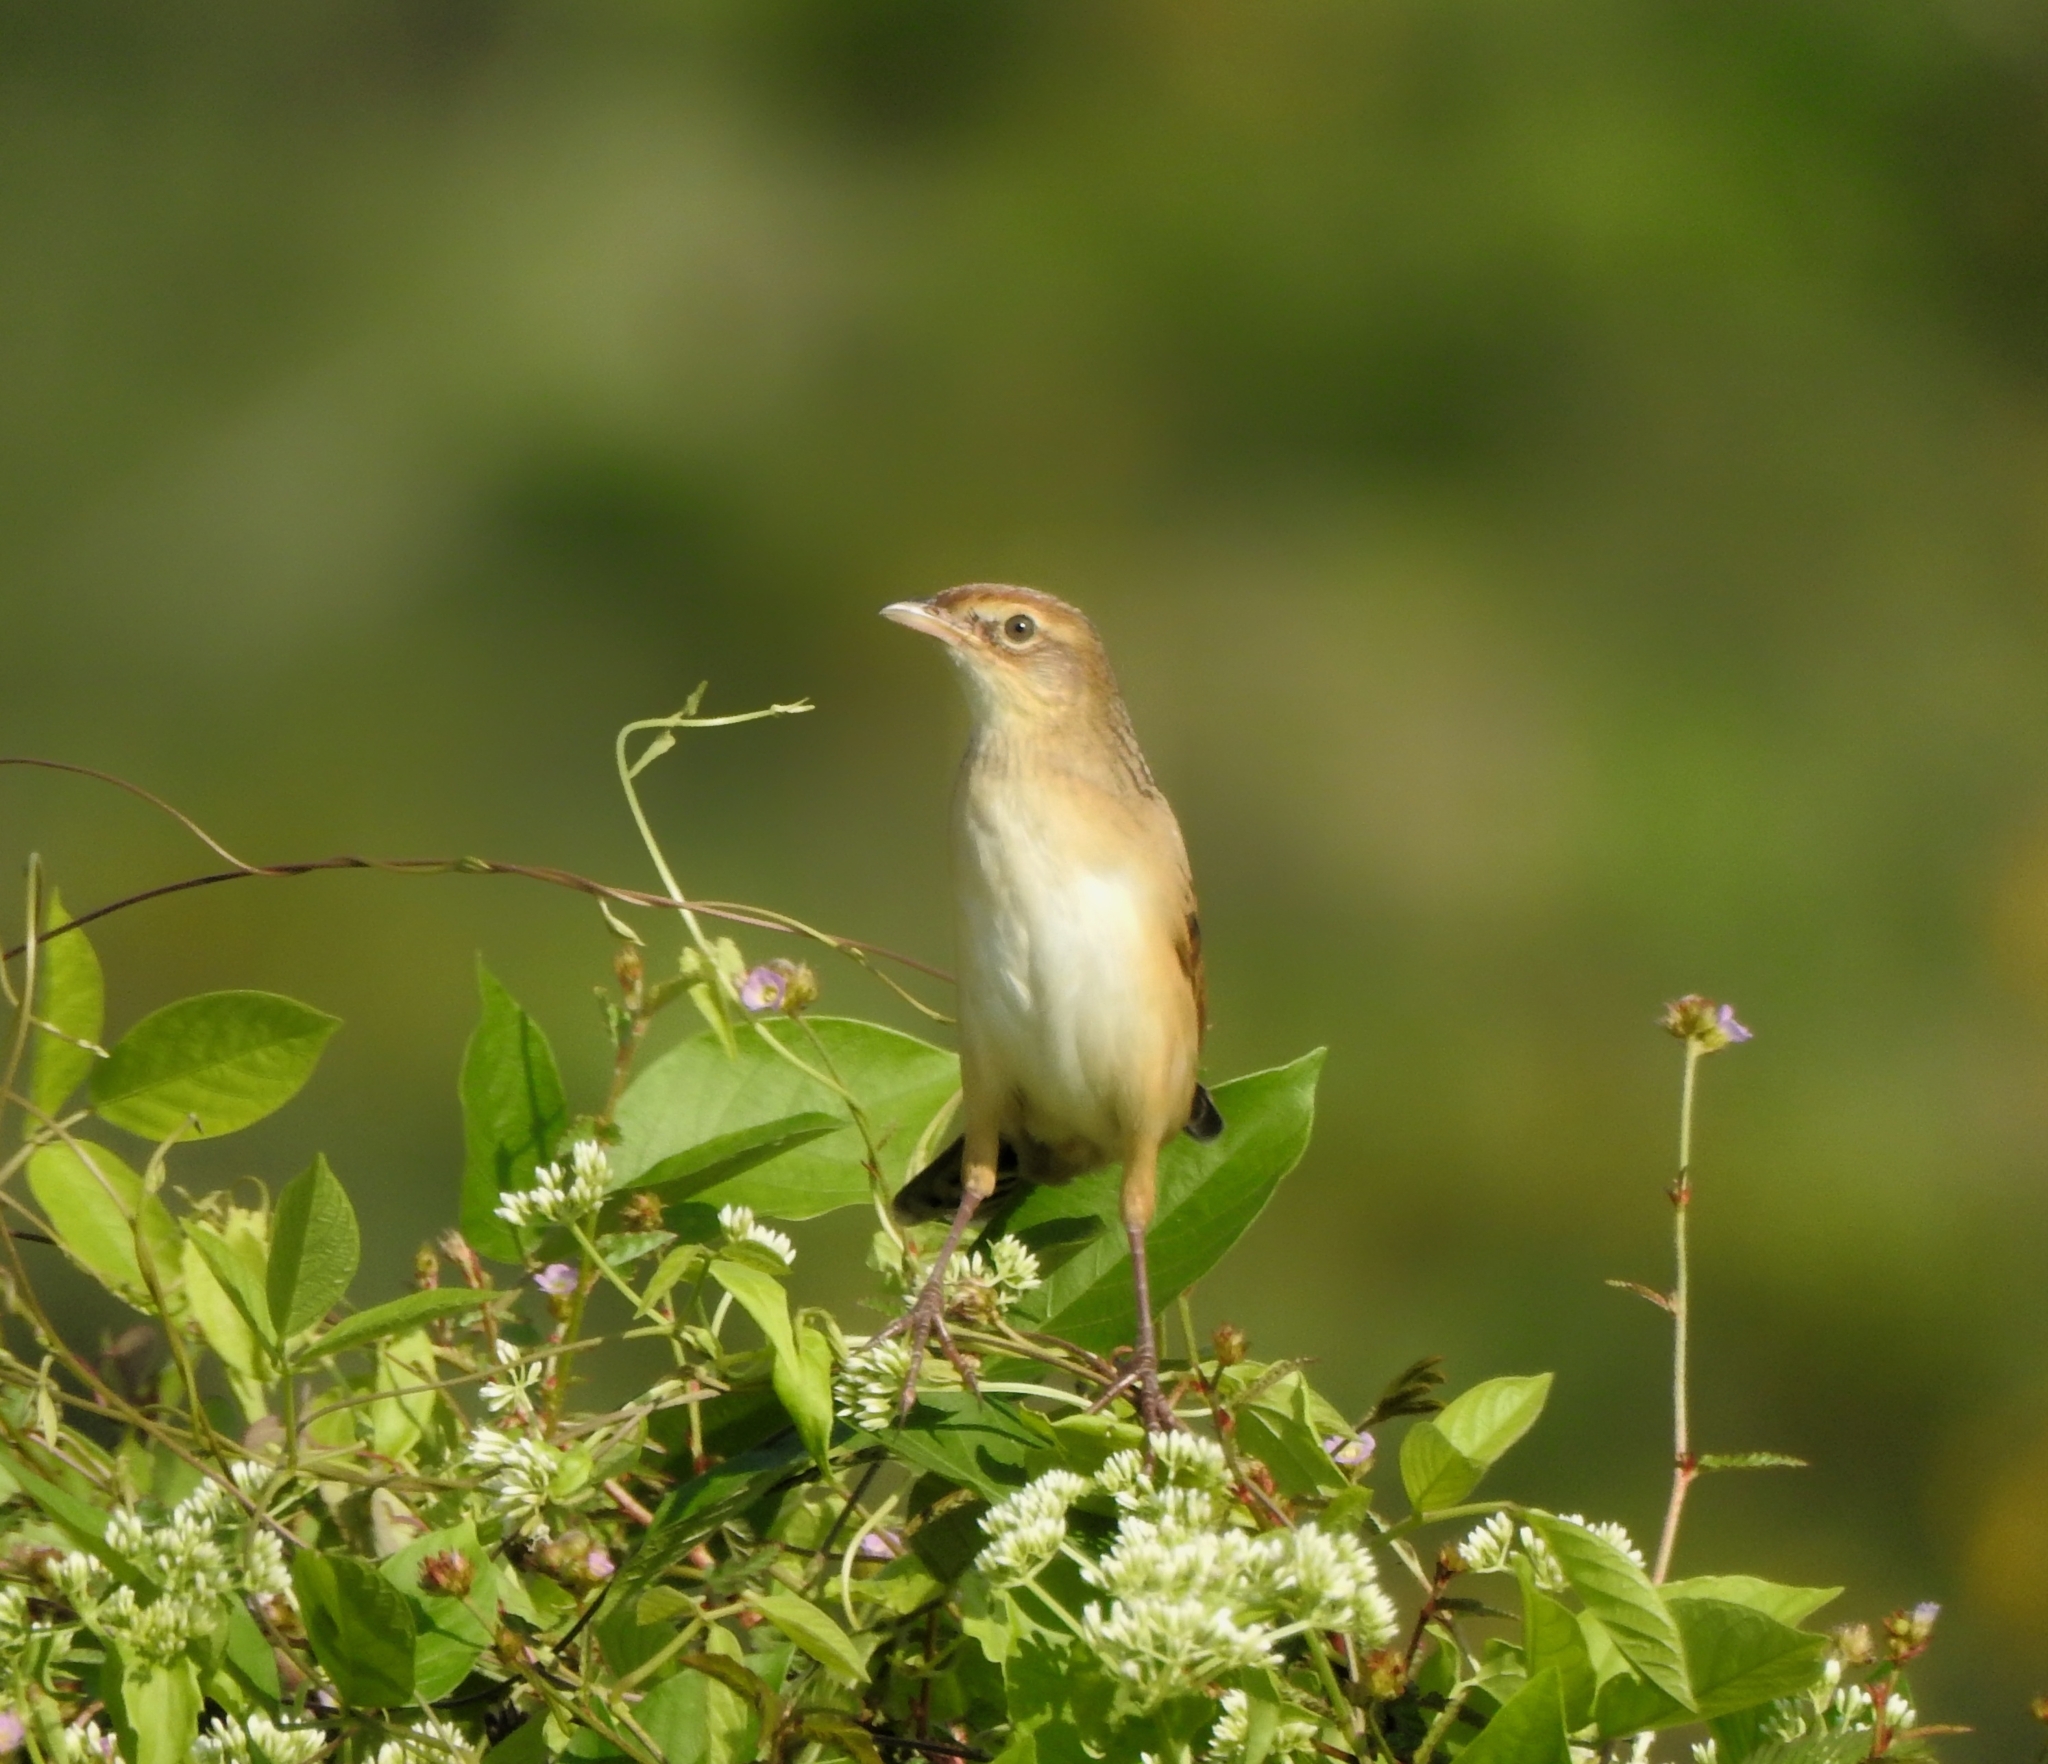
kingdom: Animalia
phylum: Chordata
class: Aves
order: Passeriformes
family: Locustellidae
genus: Chaetornis
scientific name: Chaetornis striata
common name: Bristled grassbird
